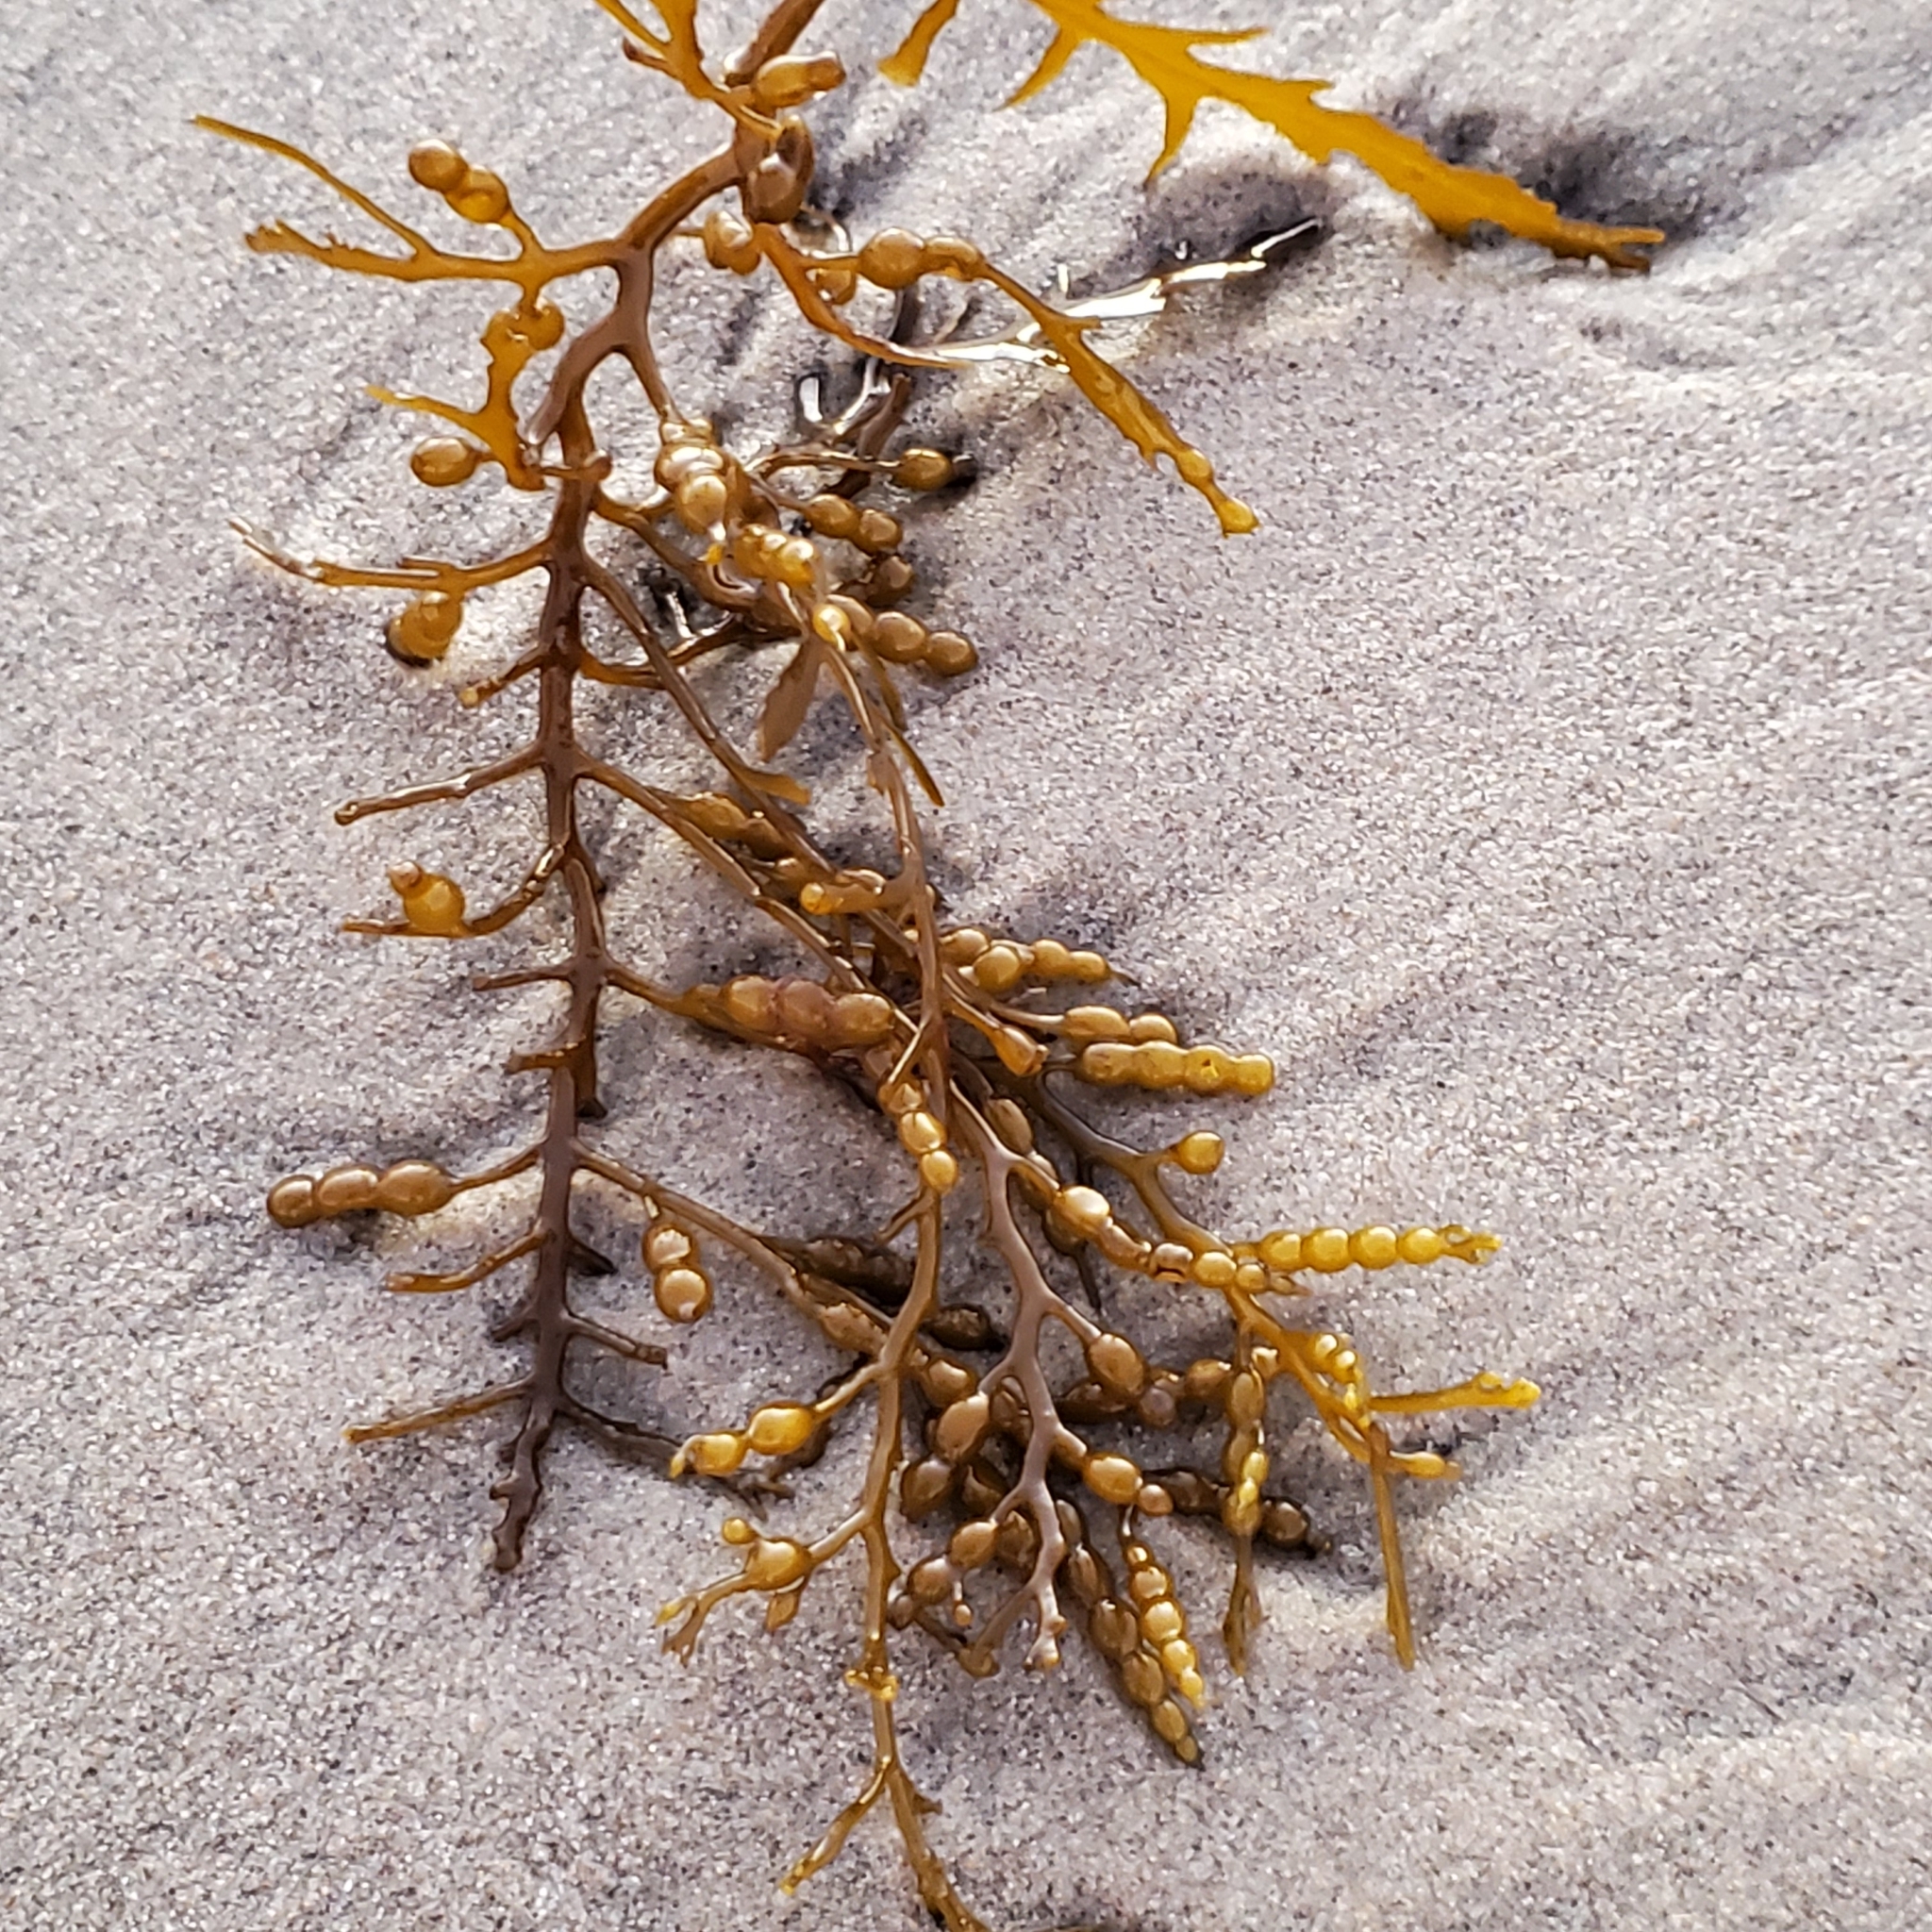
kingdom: Chromista
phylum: Ochrophyta
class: Phaeophyceae
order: Fucales
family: Sargassaceae
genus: Stephanocystis
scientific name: Stephanocystis
